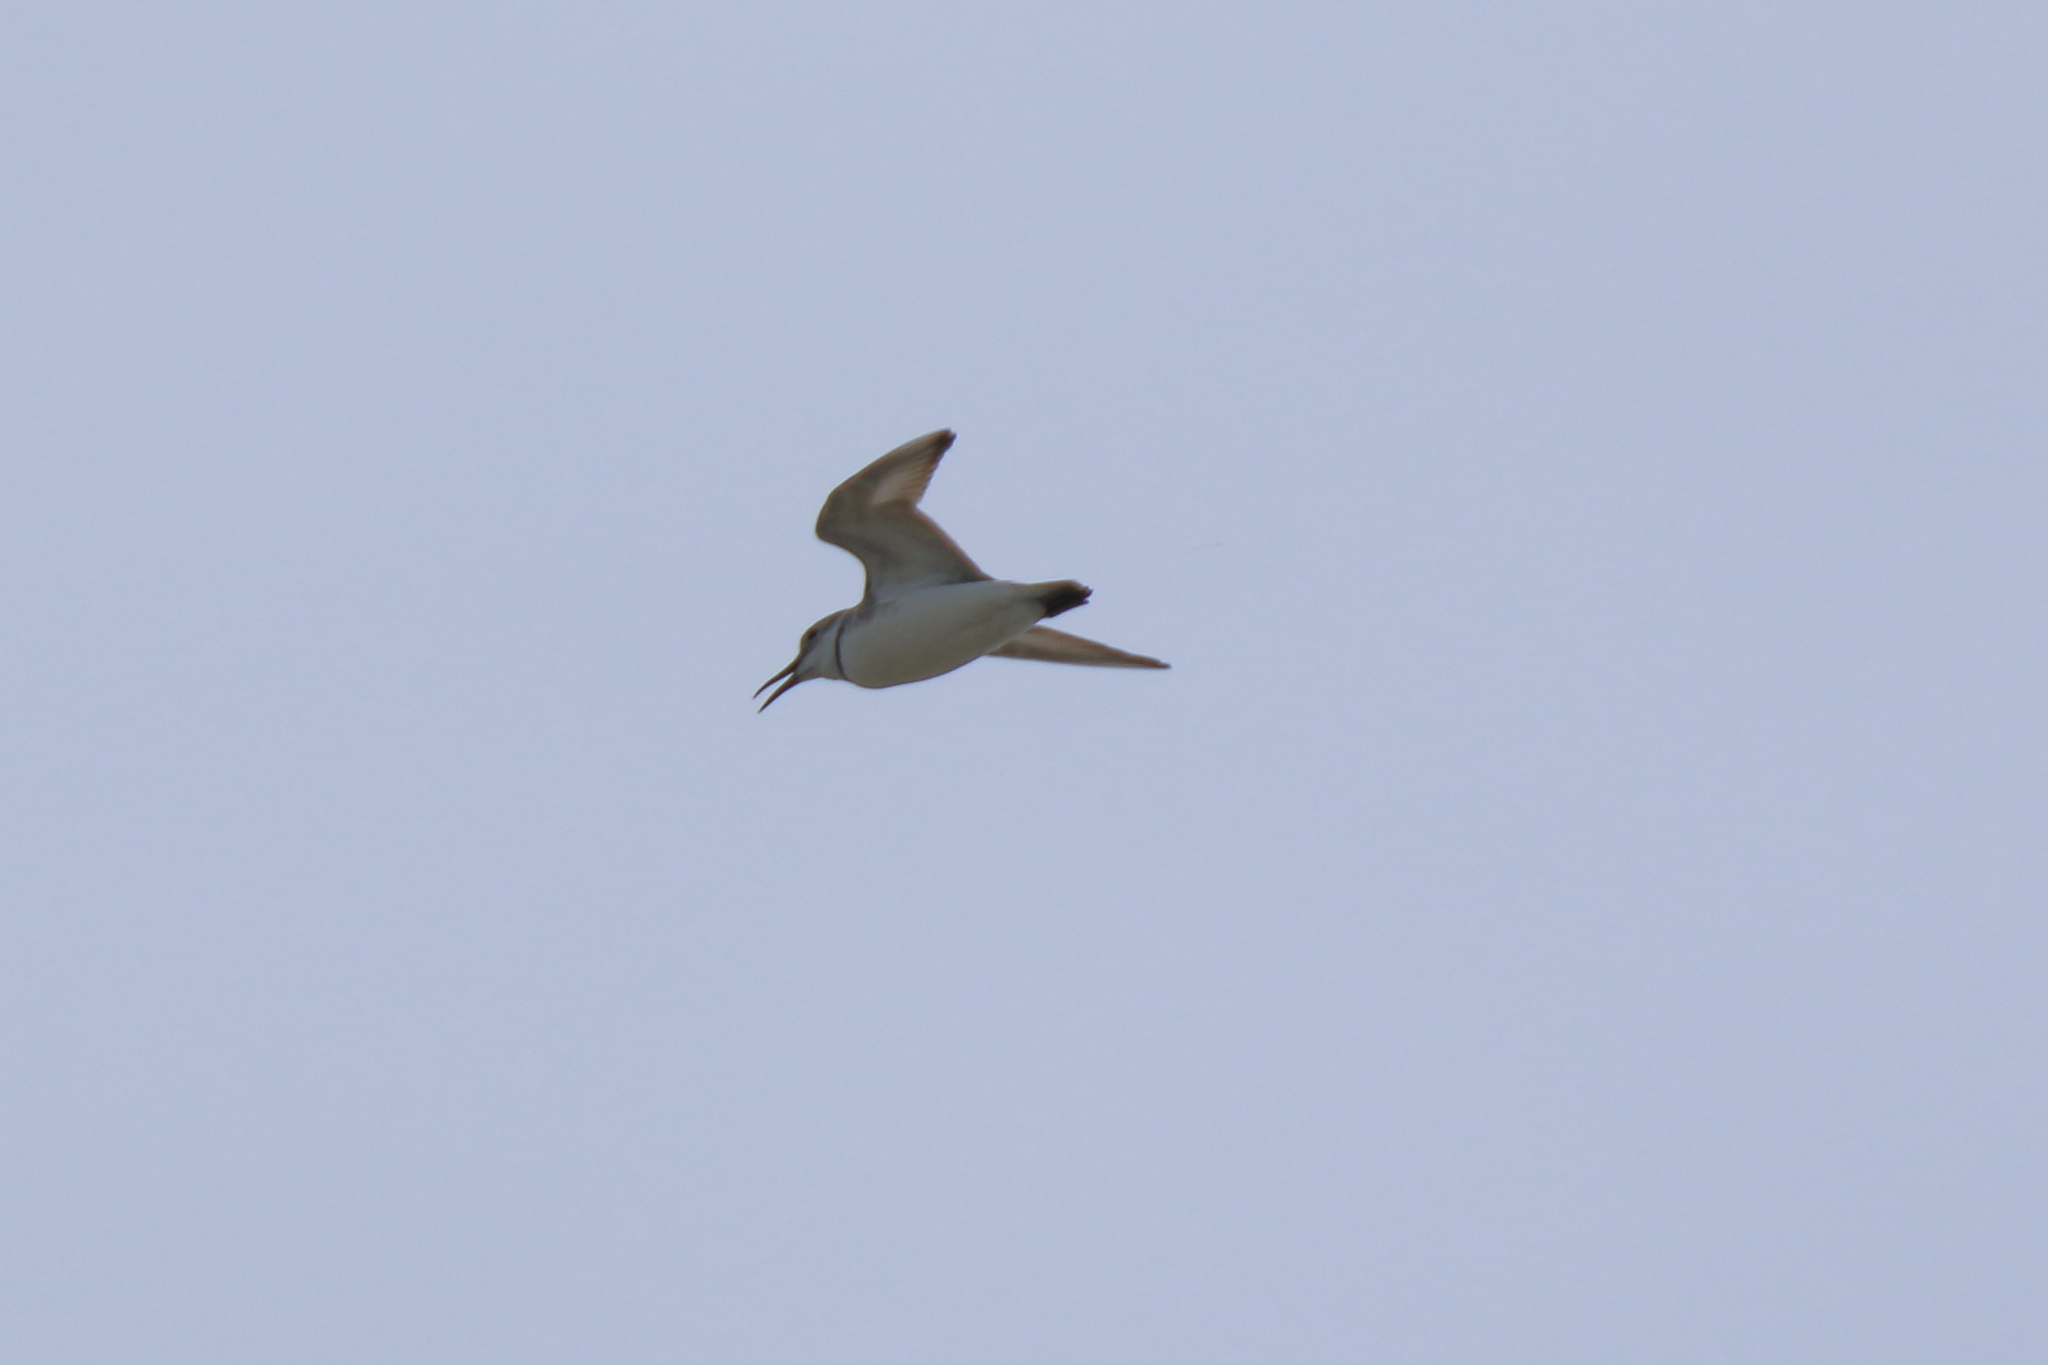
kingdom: Animalia
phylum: Chordata
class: Aves
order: Charadriiformes
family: Charadriidae
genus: Anarhynchus
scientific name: Anarhynchus frontalis
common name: Wrybill
